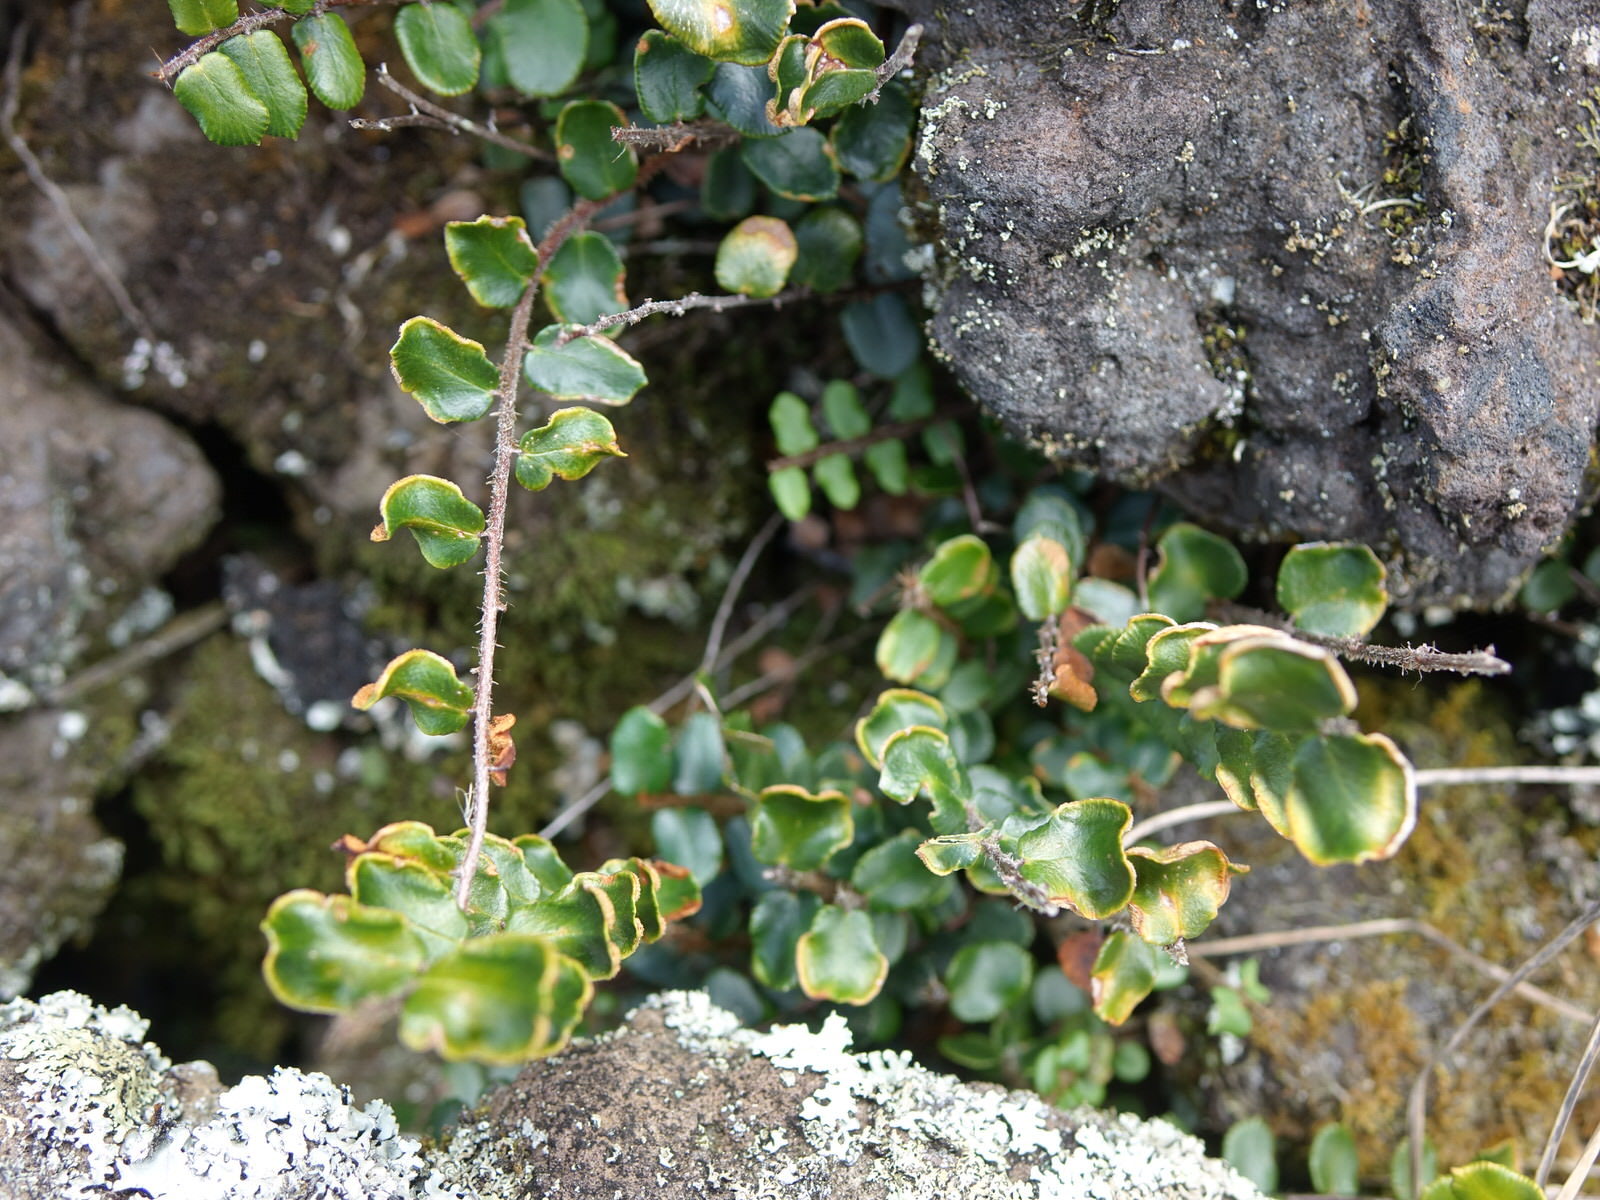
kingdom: Plantae
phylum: Tracheophyta
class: Polypodiopsida
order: Polypodiales
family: Pteridaceae
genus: Pellaea
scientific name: Pellaea rotundifolia
